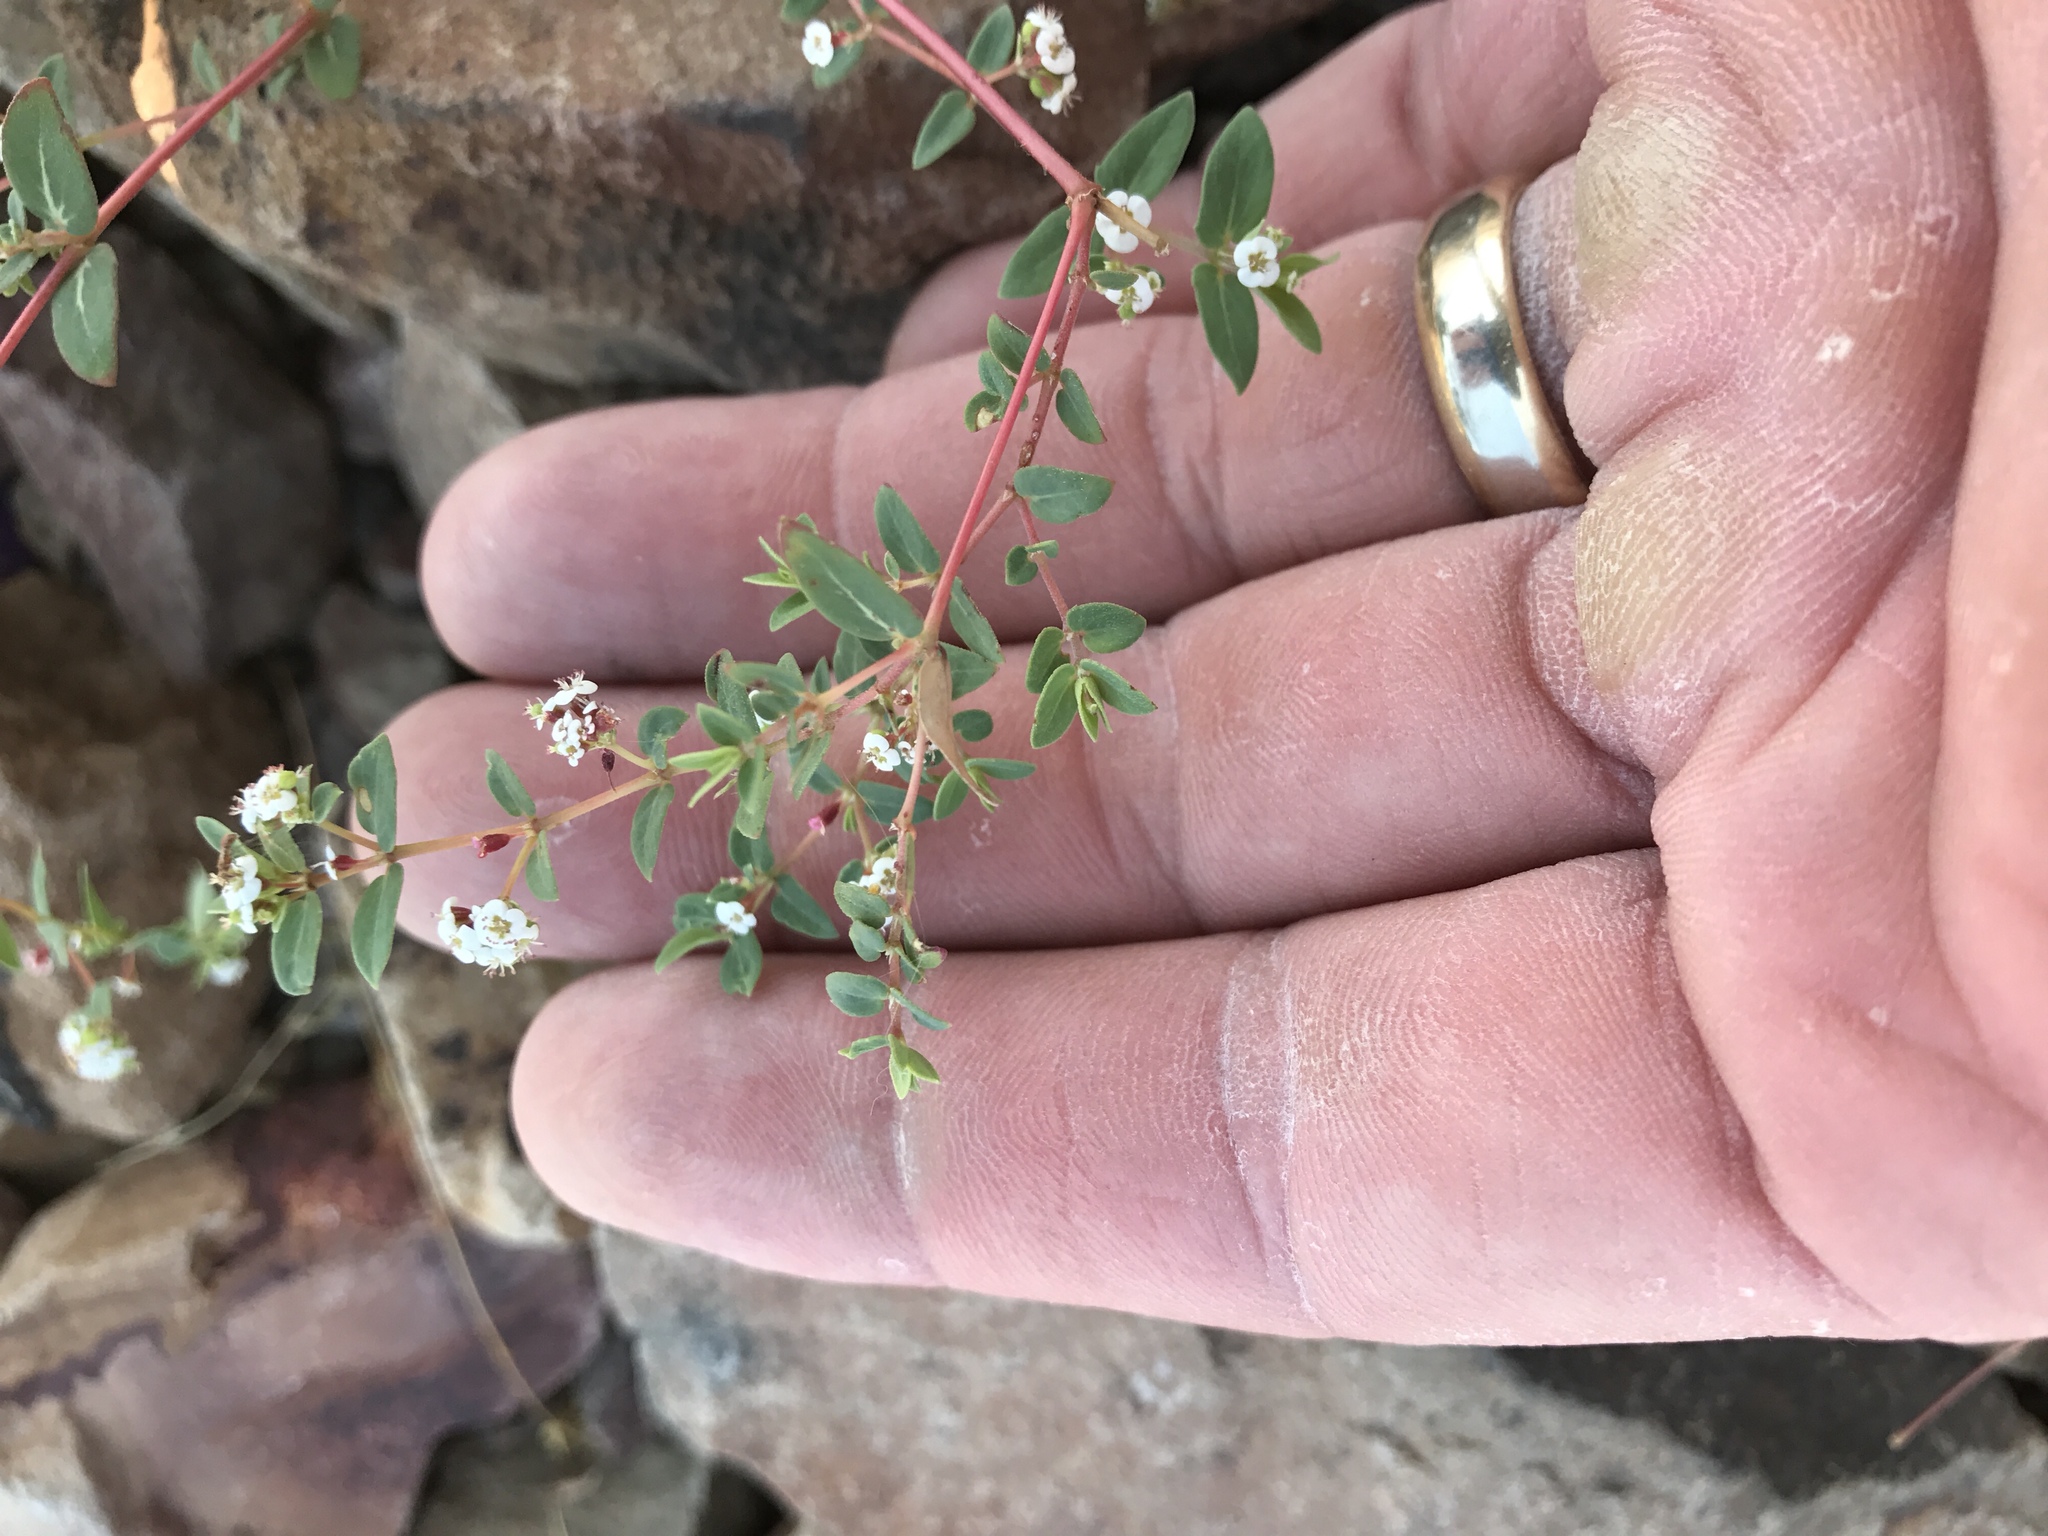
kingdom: Plantae
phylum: Tracheophyta
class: Magnoliopsida
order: Malpighiales
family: Euphorbiaceae
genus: Euphorbia
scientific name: Euphorbia capitellata
